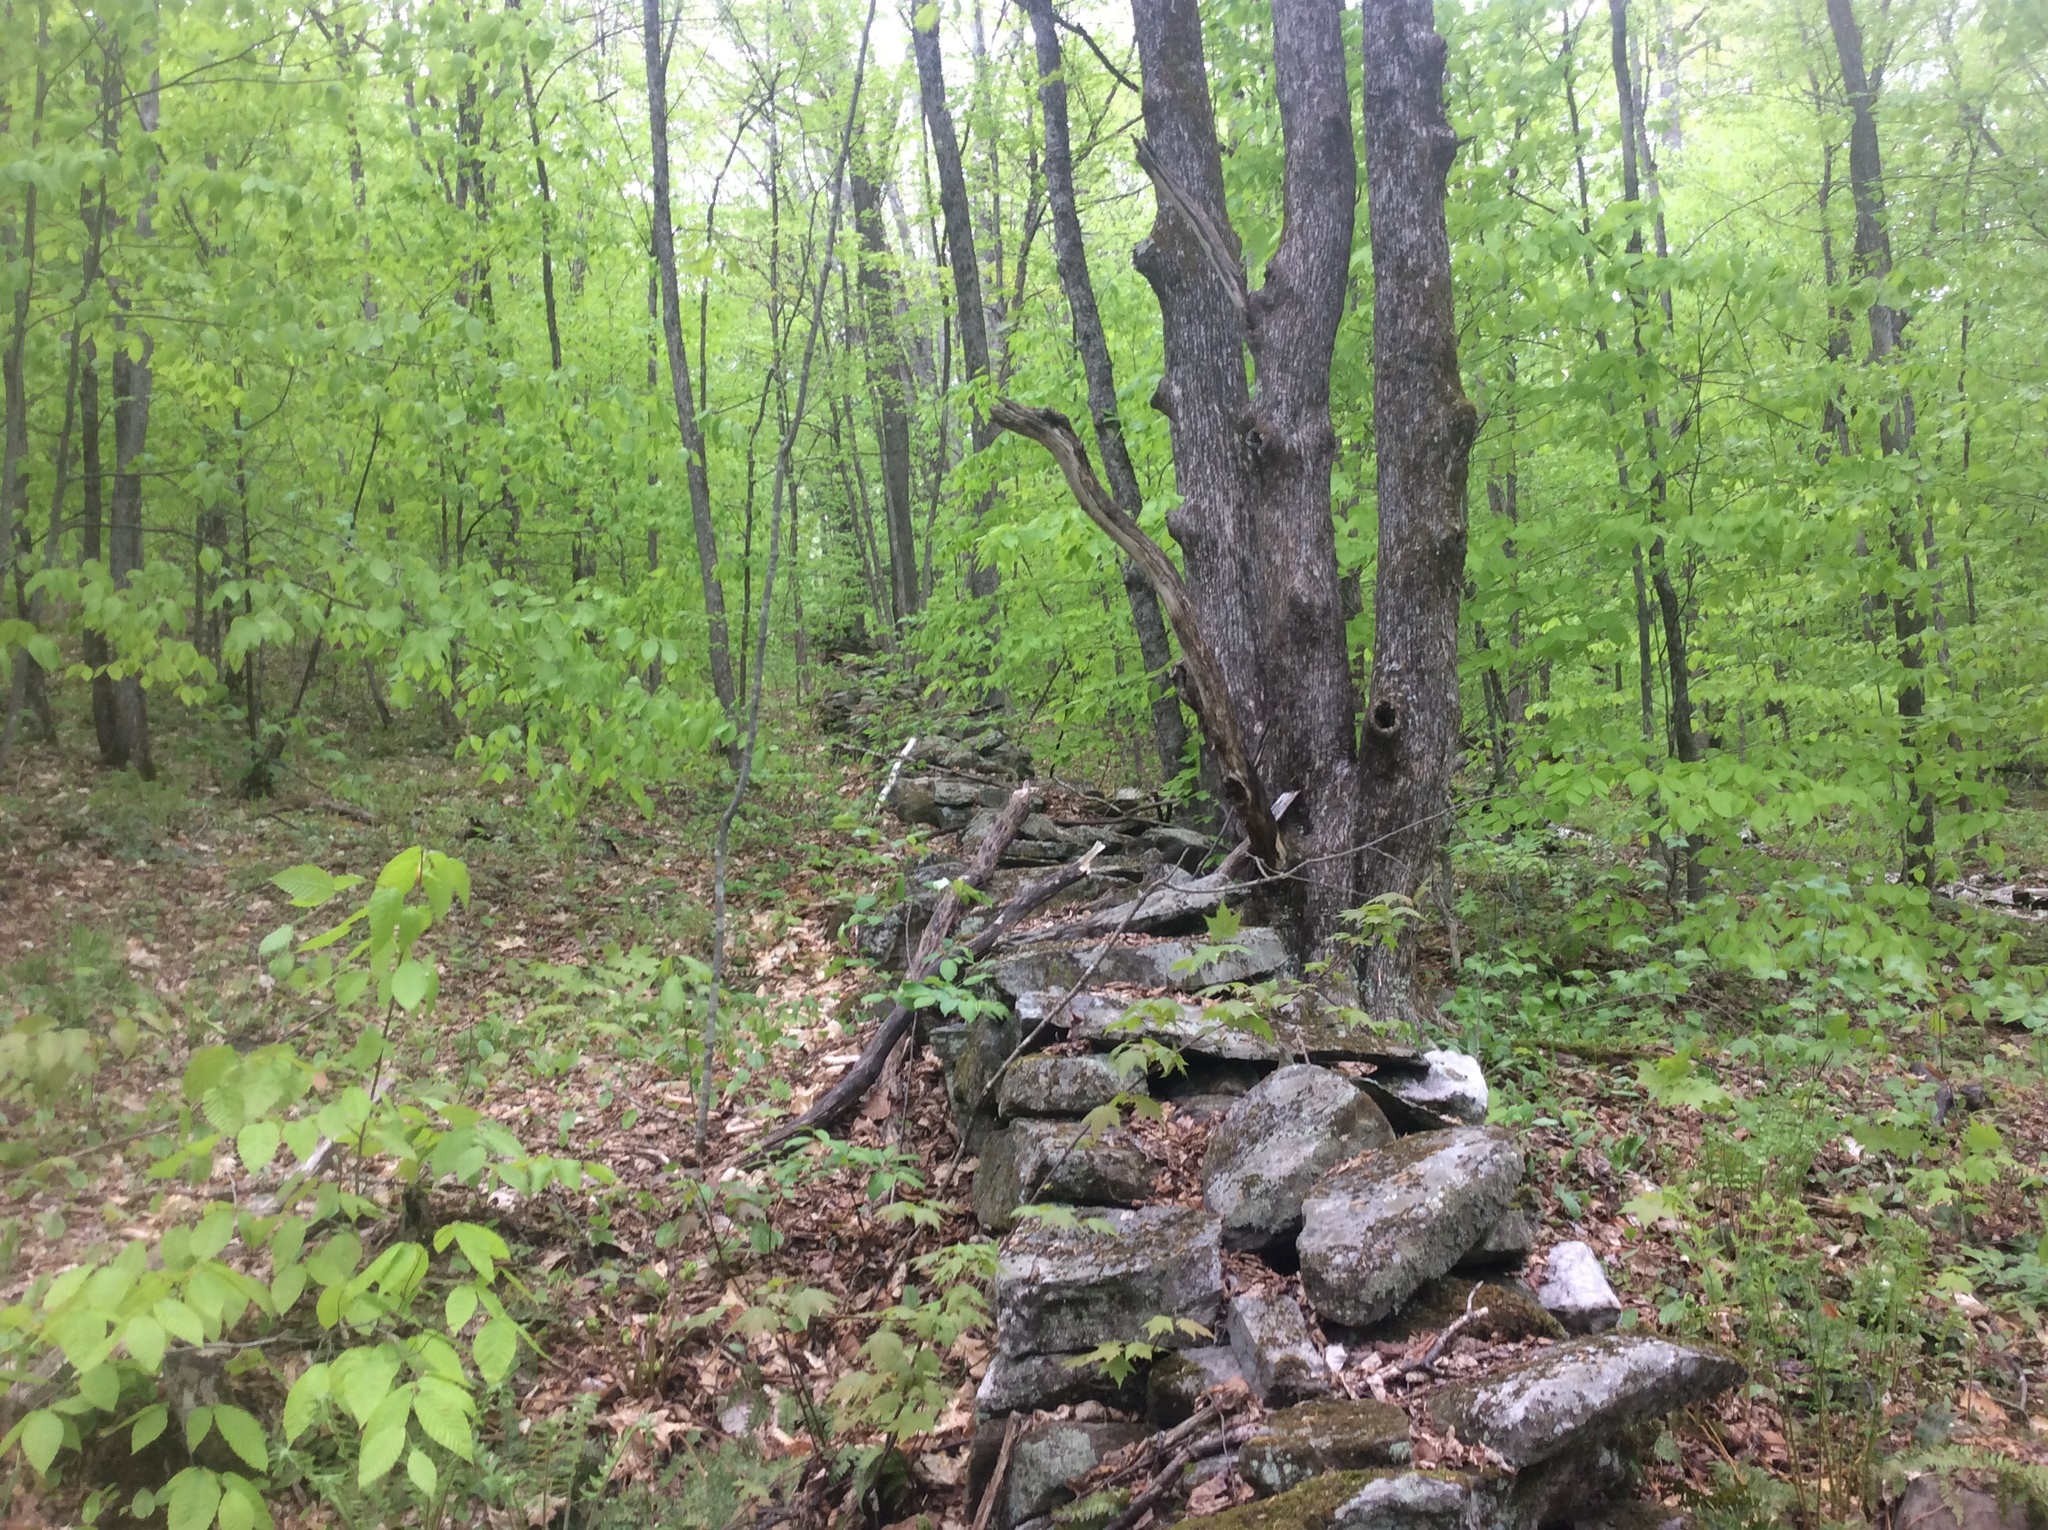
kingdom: Plantae
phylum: Tracheophyta
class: Magnoliopsida
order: Fagales
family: Betulaceae
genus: Ostrya
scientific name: Ostrya virginiana
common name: Ironwood
